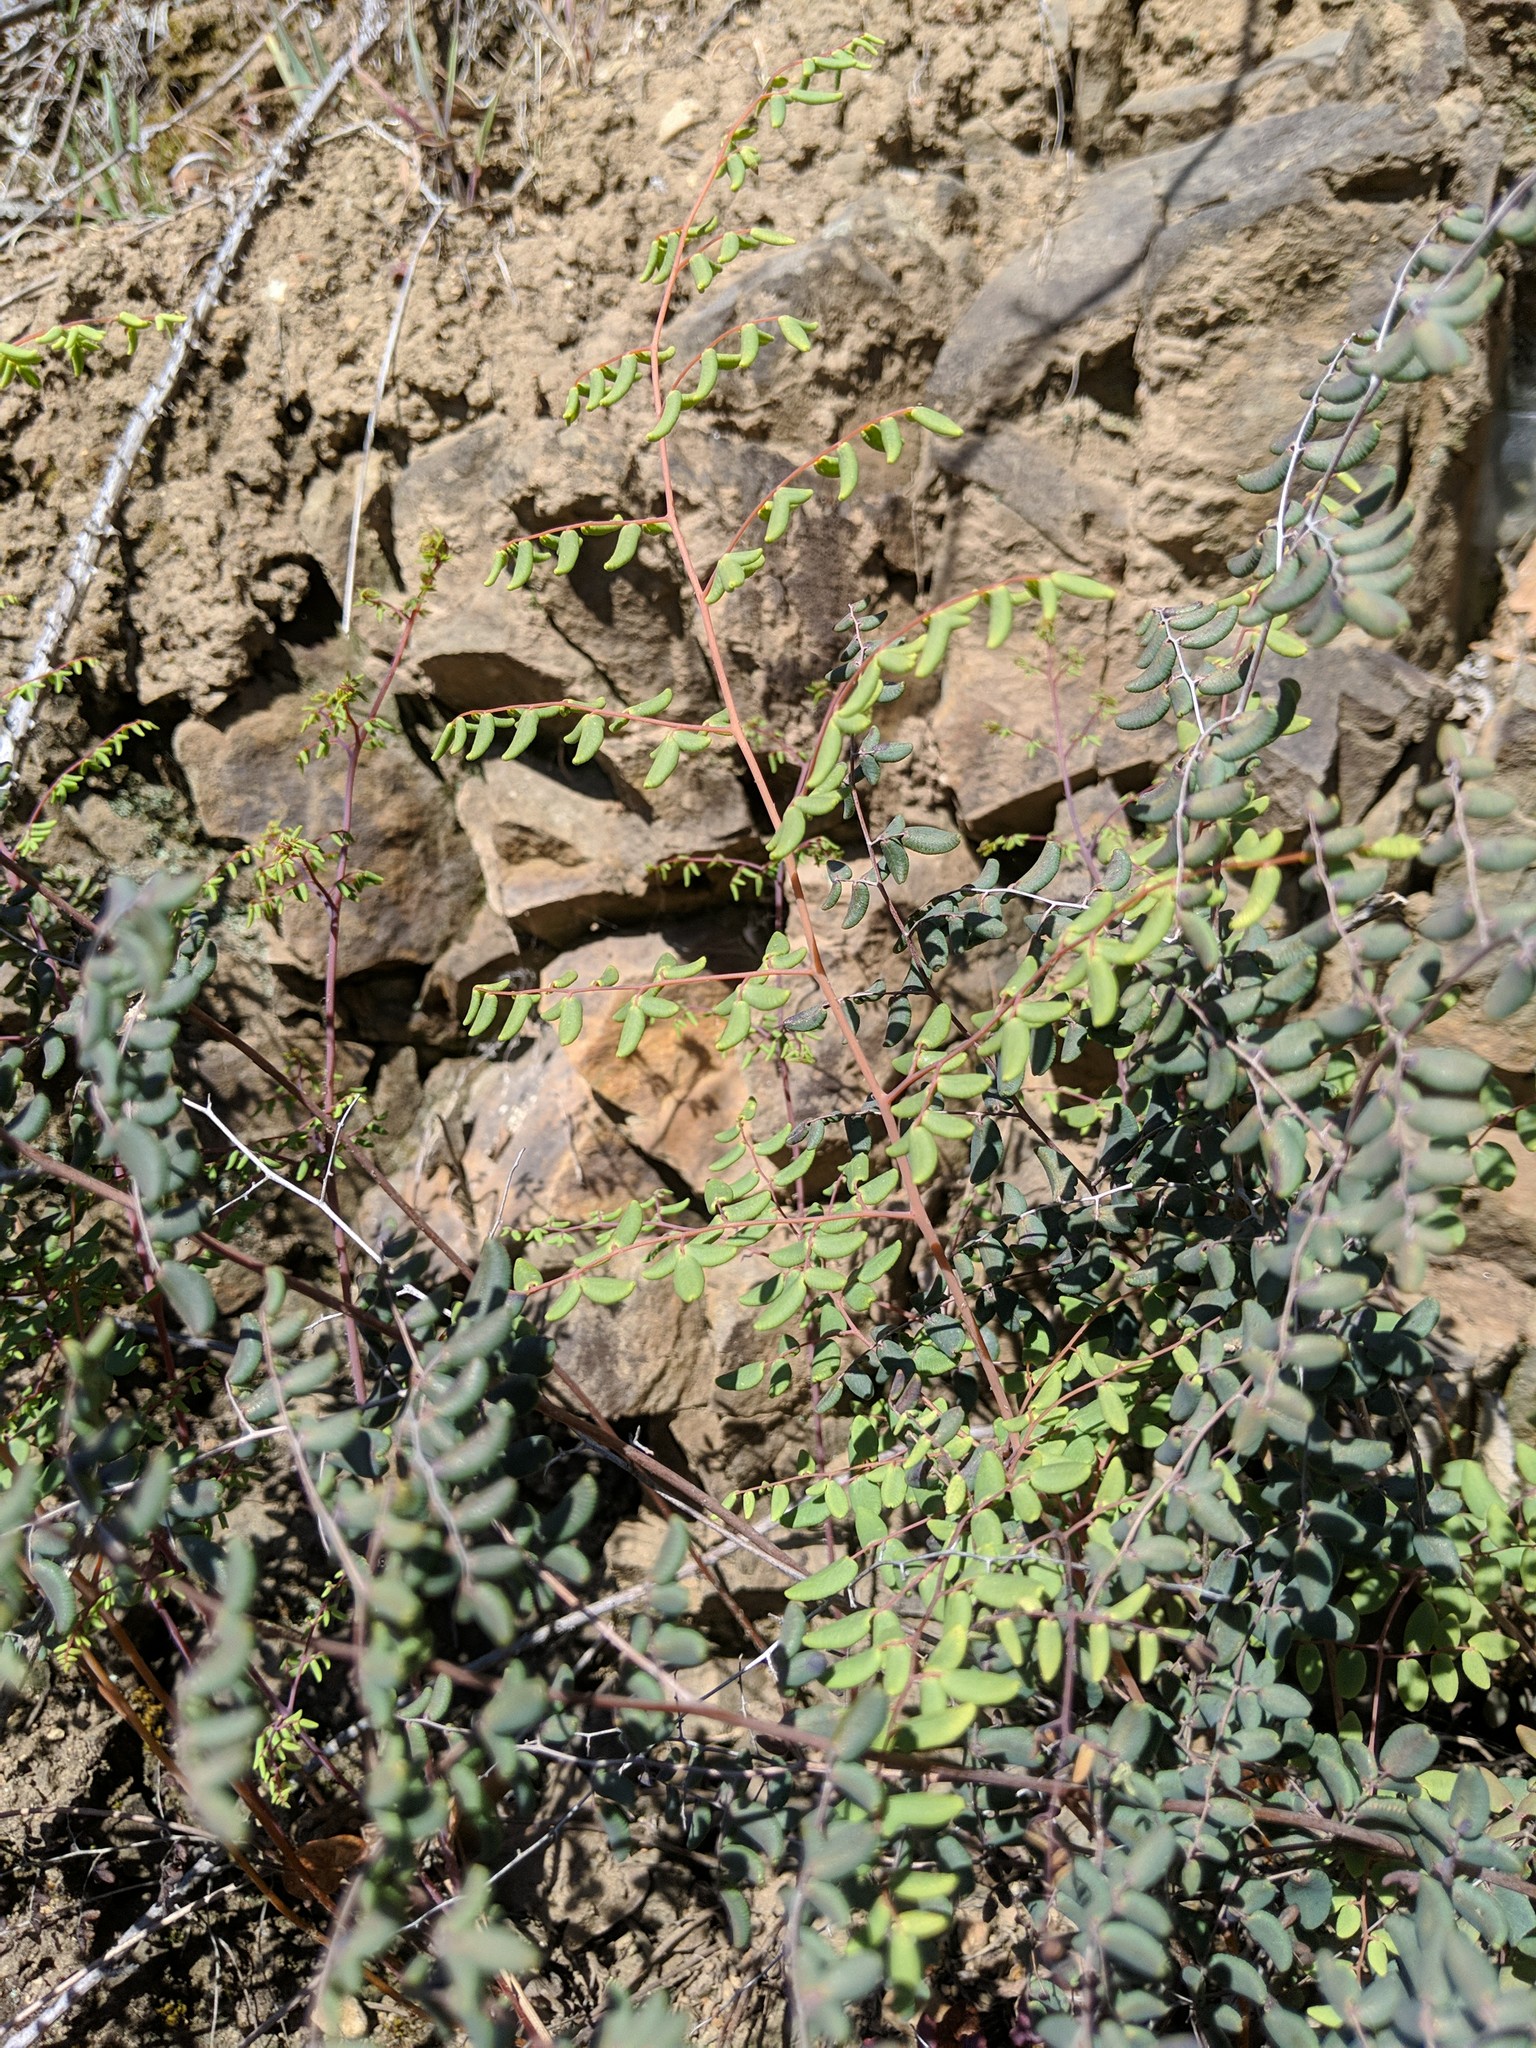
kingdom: Plantae
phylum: Tracheophyta
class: Polypodiopsida
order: Polypodiales
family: Pteridaceae
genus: Pellaea
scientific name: Pellaea andromedifolia
